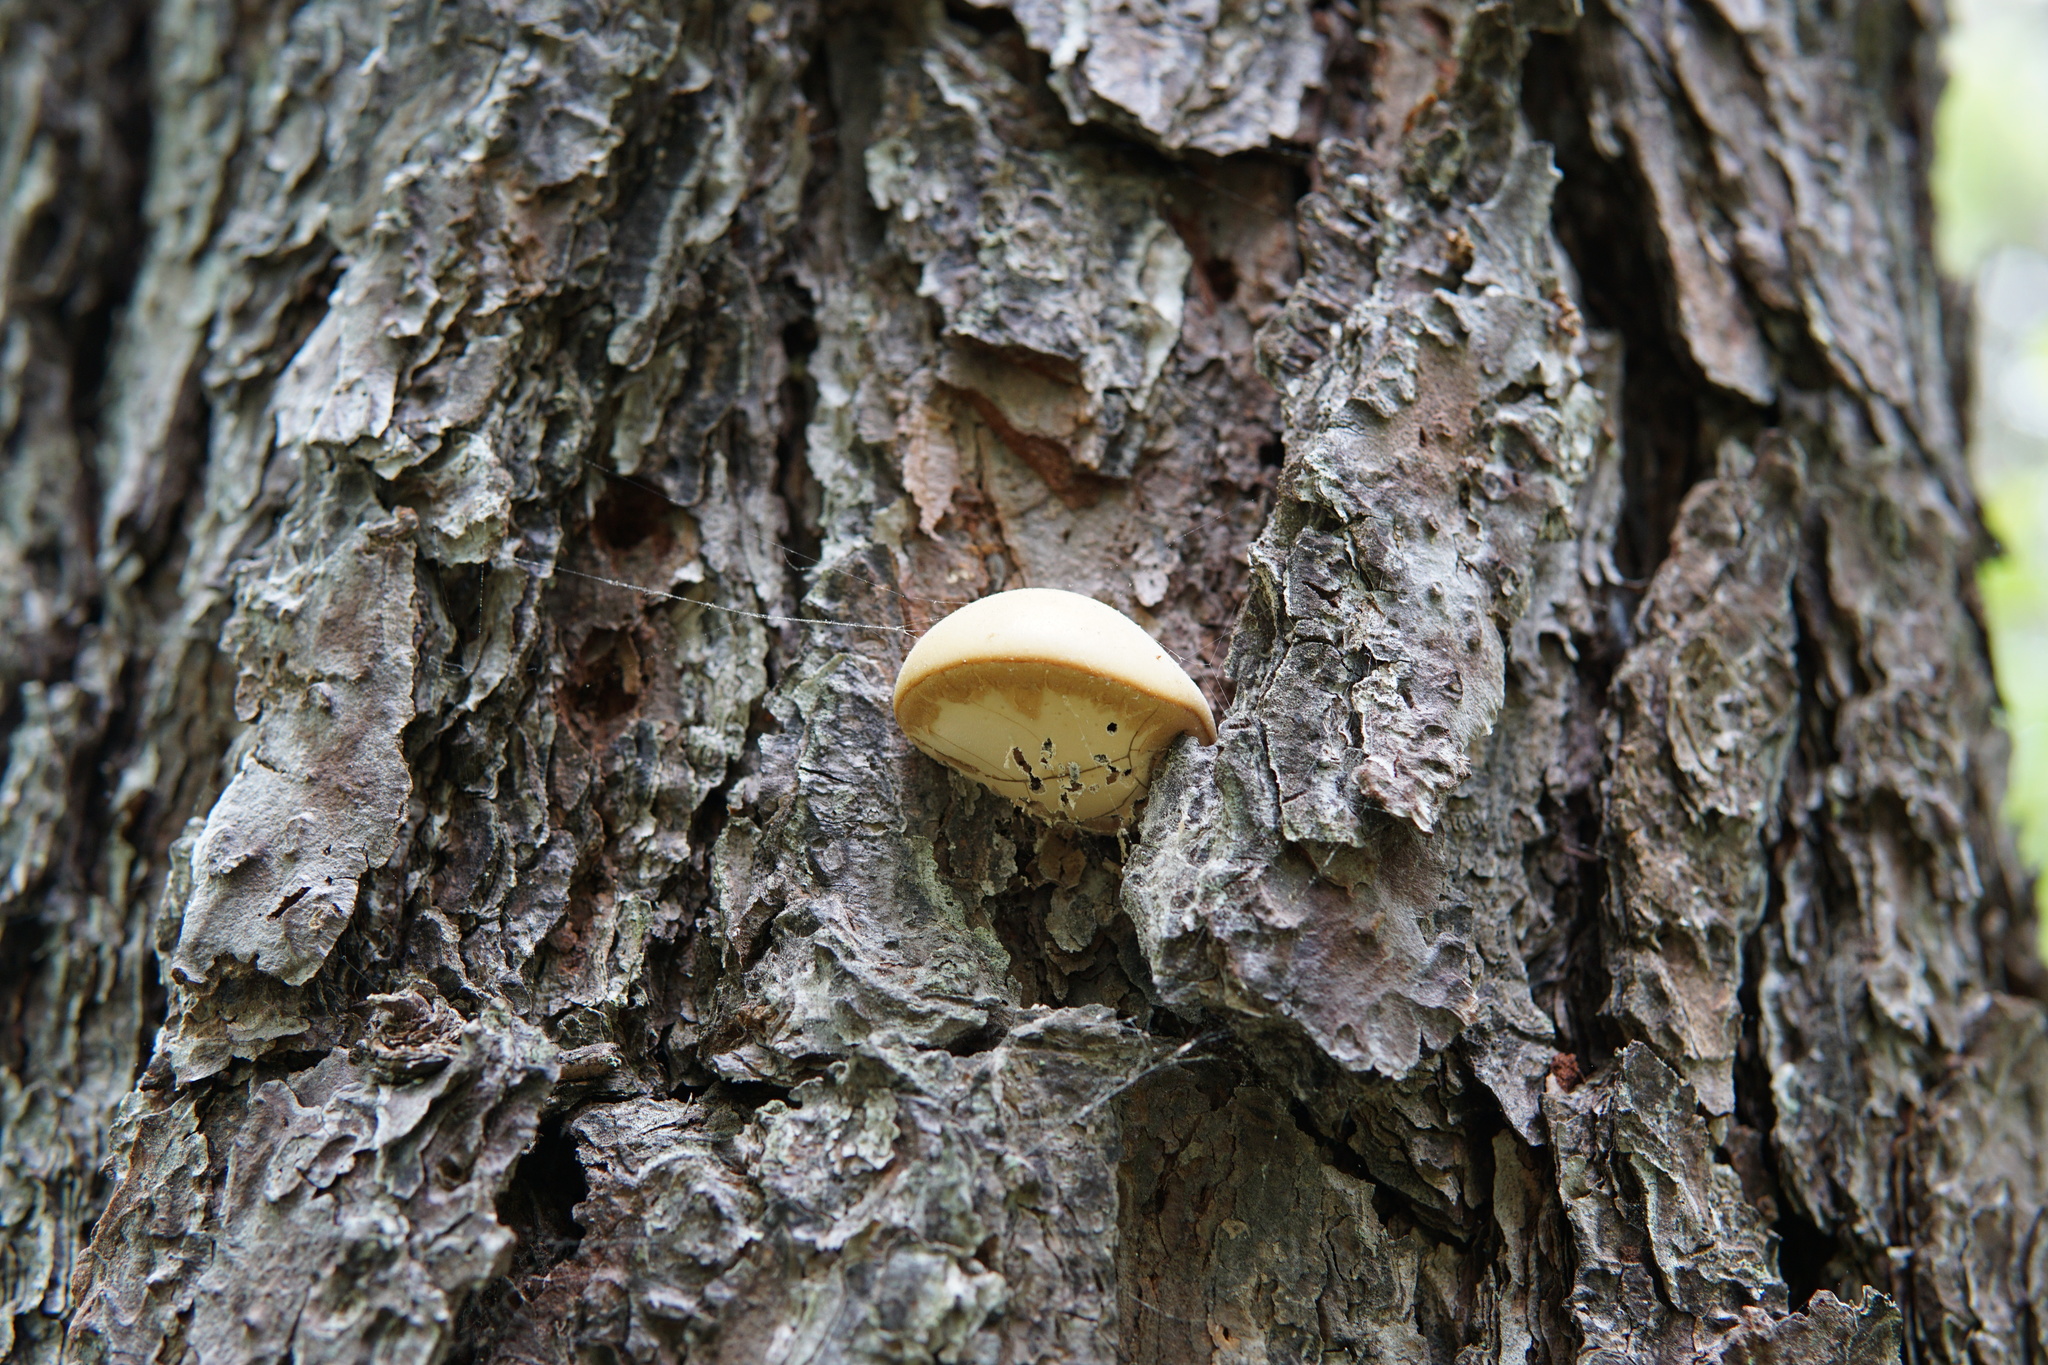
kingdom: Fungi
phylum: Basidiomycota
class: Agaricomycetes
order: Polyporales
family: Polyporaceae
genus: Cryptoporus
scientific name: Cryptoporus volvatus
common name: Veiled polypore
